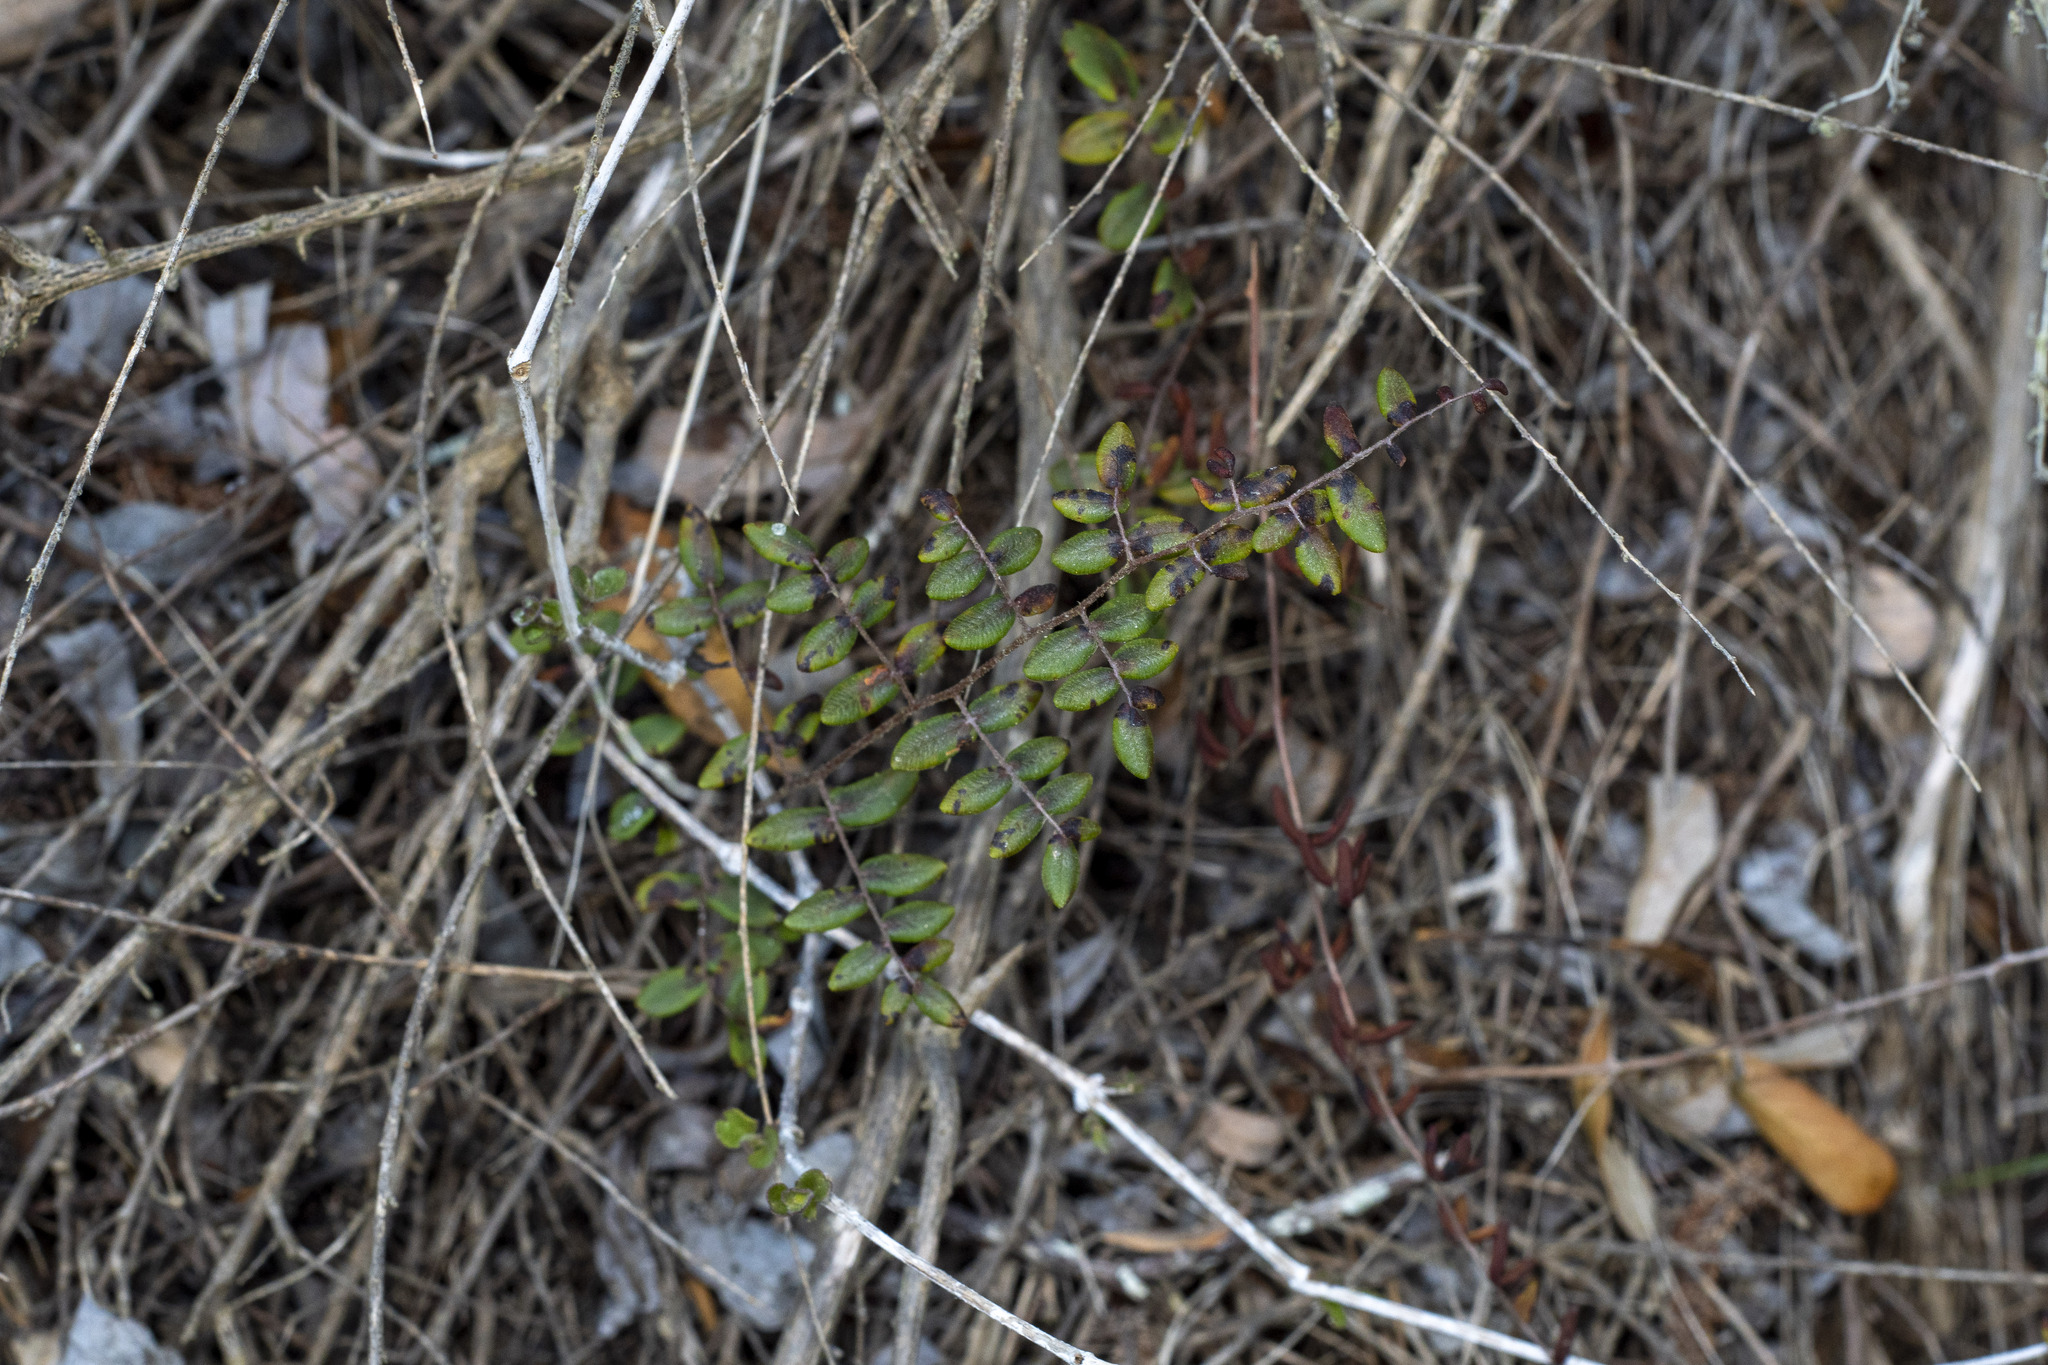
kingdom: Plantae
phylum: Tracheophyta
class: Polypodiopsida
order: Polypodiales
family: Pteridaceae
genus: Pellaea
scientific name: Pellaea andromedifolia
